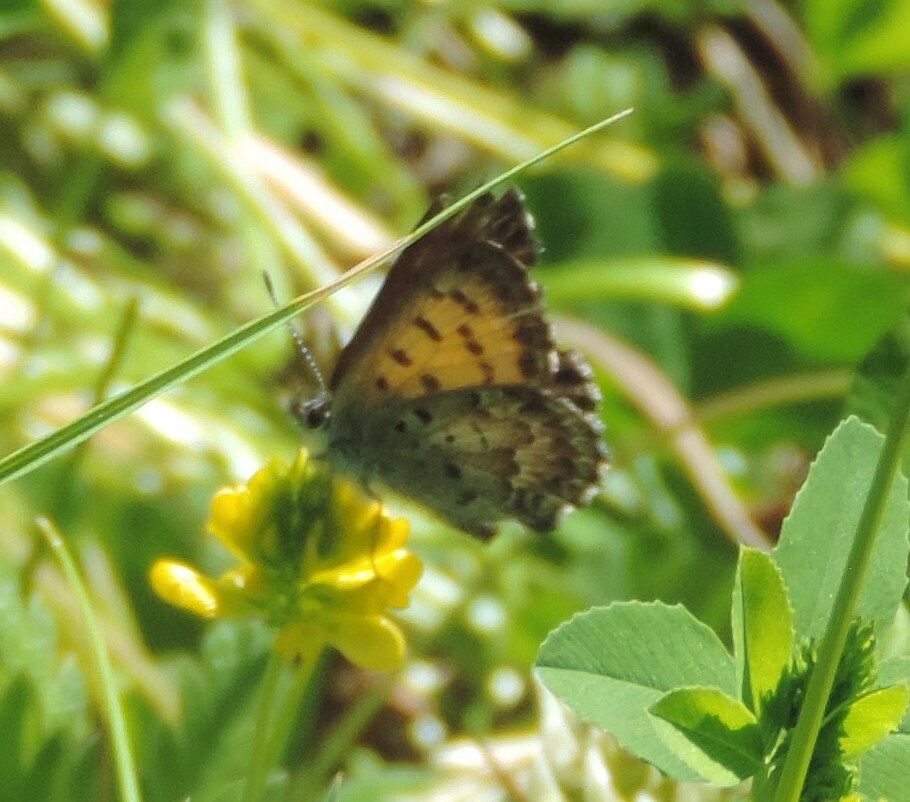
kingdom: Animalia
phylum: Arthropoda
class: Insecta
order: Lepidoptera
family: Lycaenidae
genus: Tharsalea
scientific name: Tharsalea mariposa
